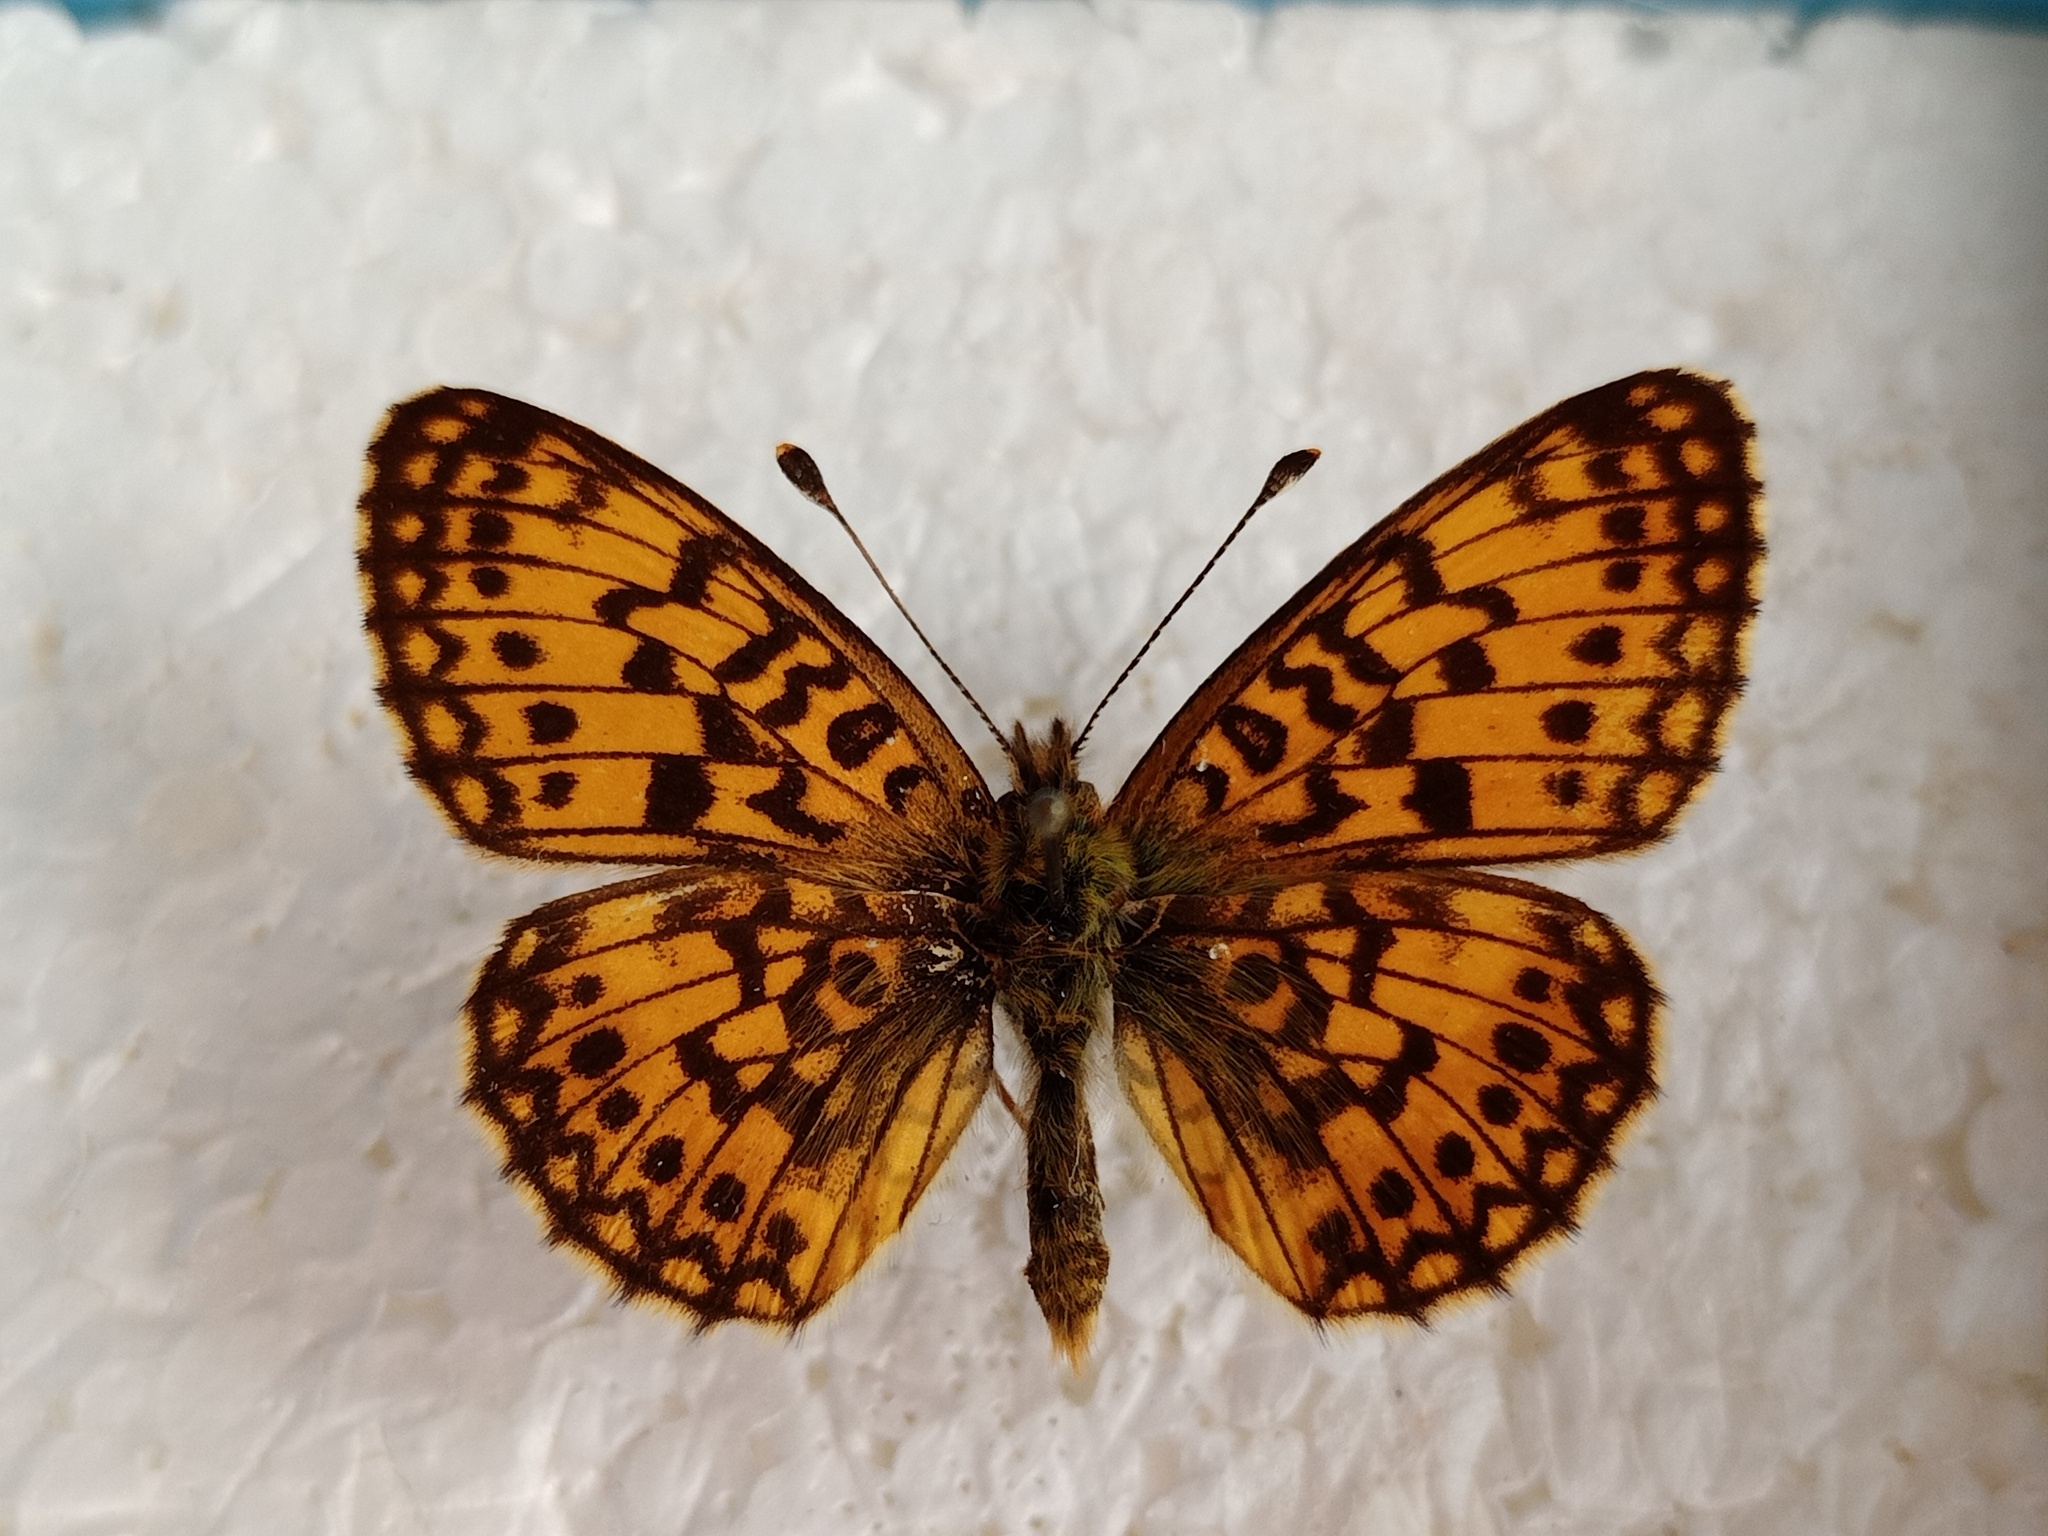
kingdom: Animalia
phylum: Arthropoda
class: Insecta
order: Lepidoptera
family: Nymphalidae
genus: Boloria
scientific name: Boloria selene
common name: Small pearl-bordered fritillary
